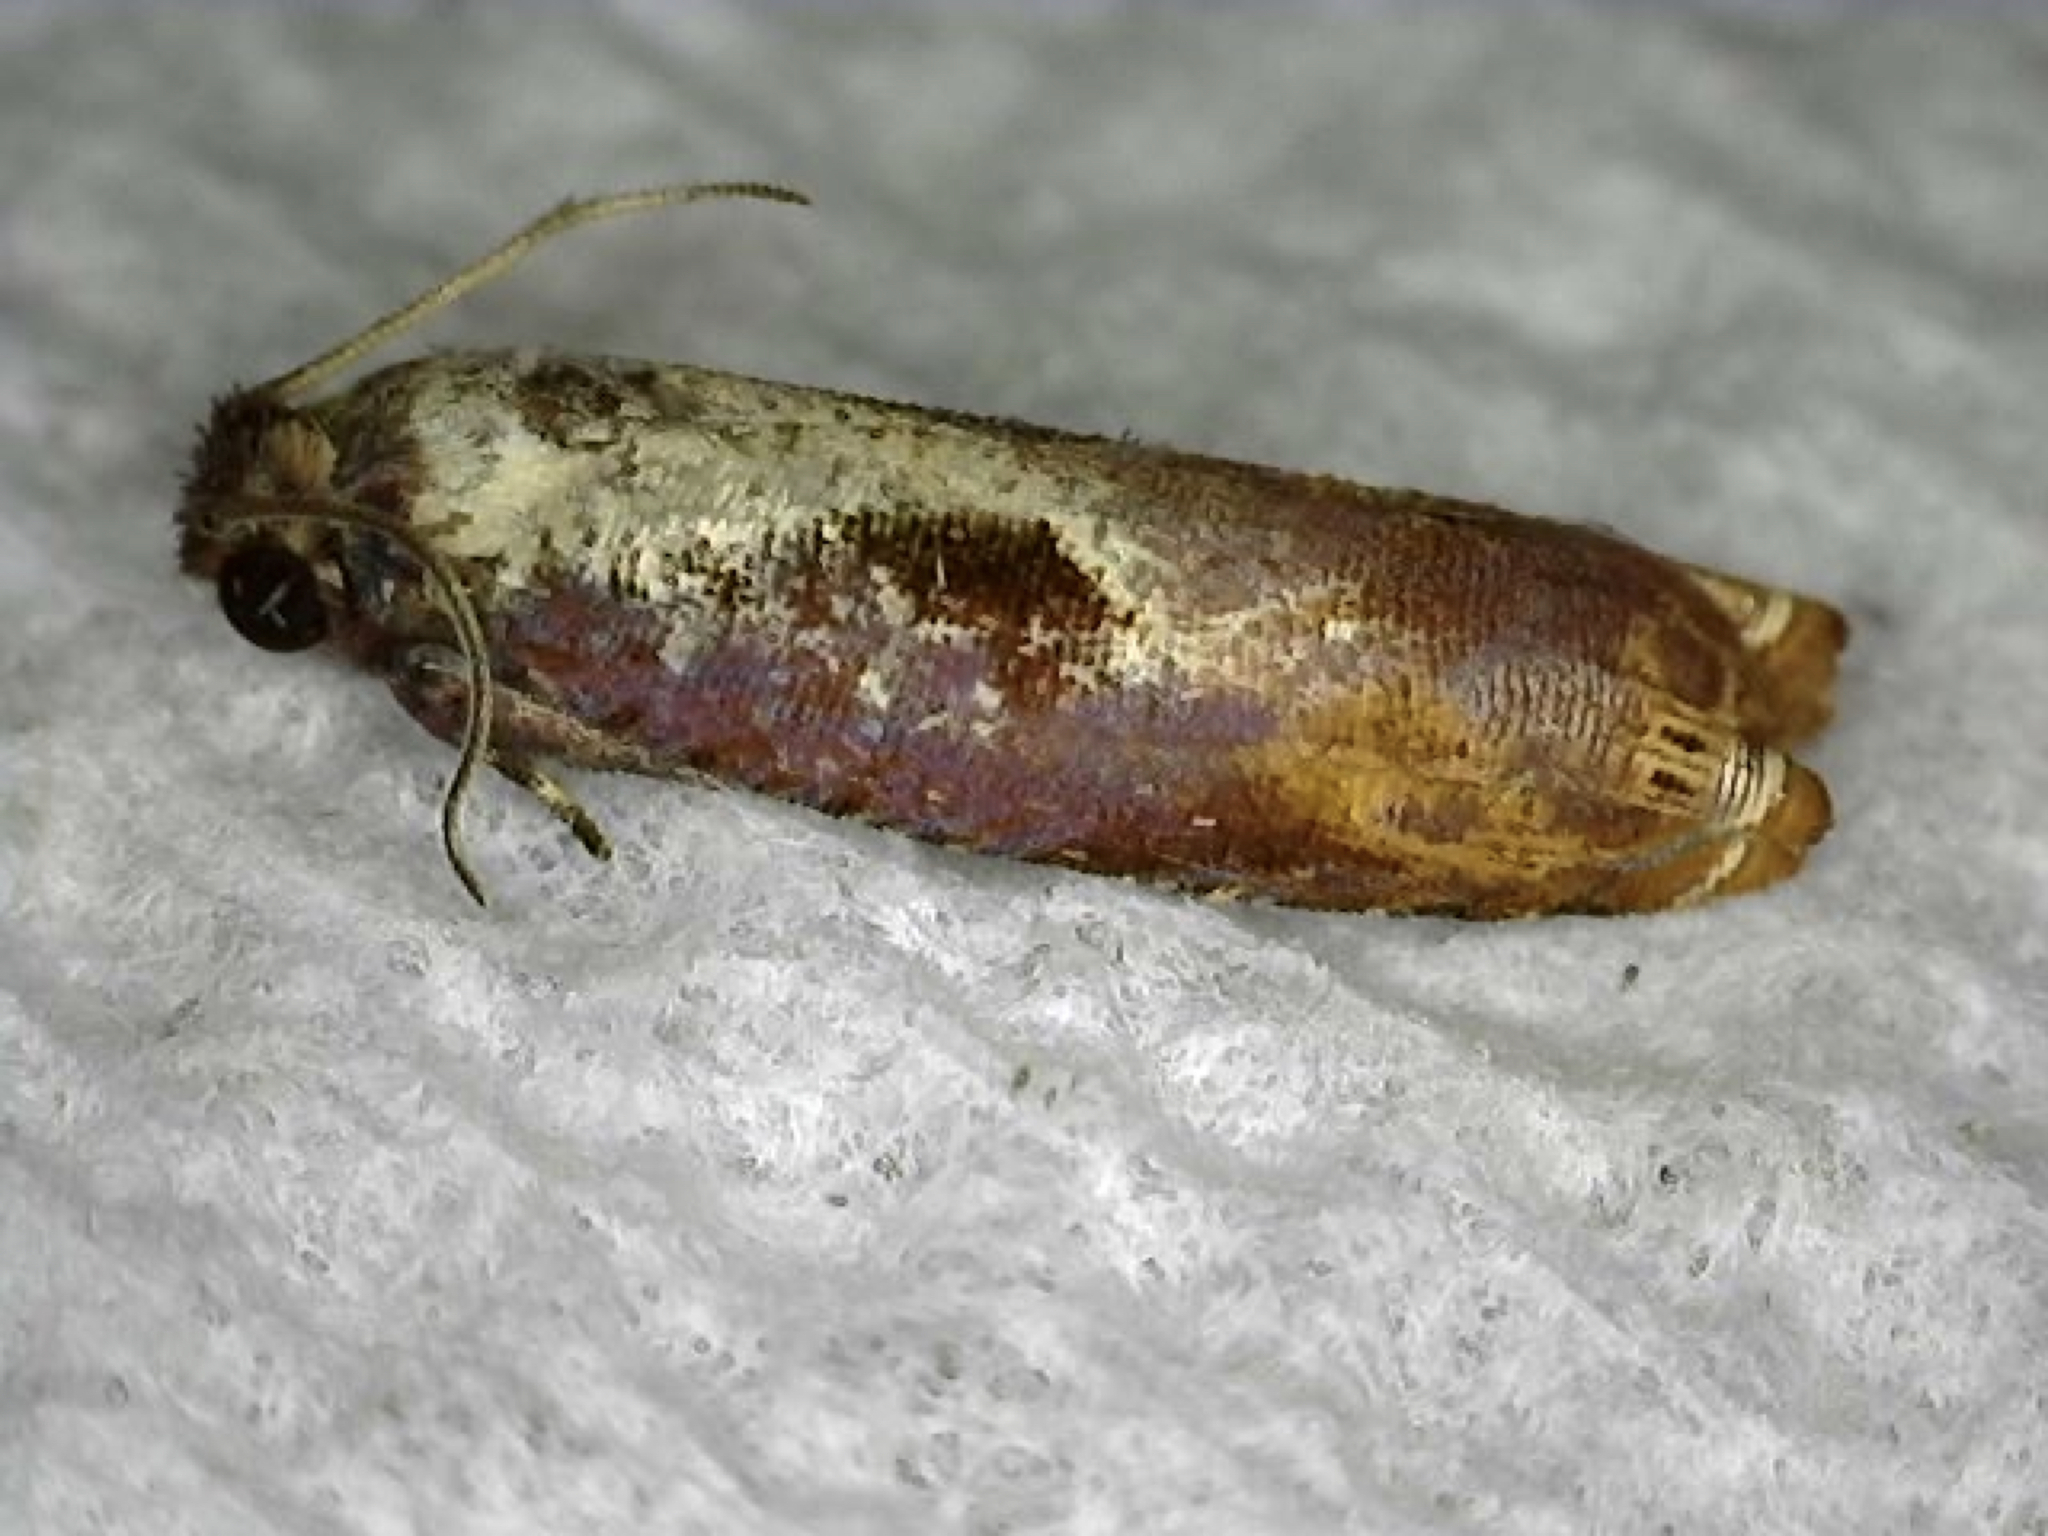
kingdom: Animalia
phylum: Arthropoda
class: Insecta
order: Lepidoptera
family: Tortricidae
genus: Episimus
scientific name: Episimus tyrius
